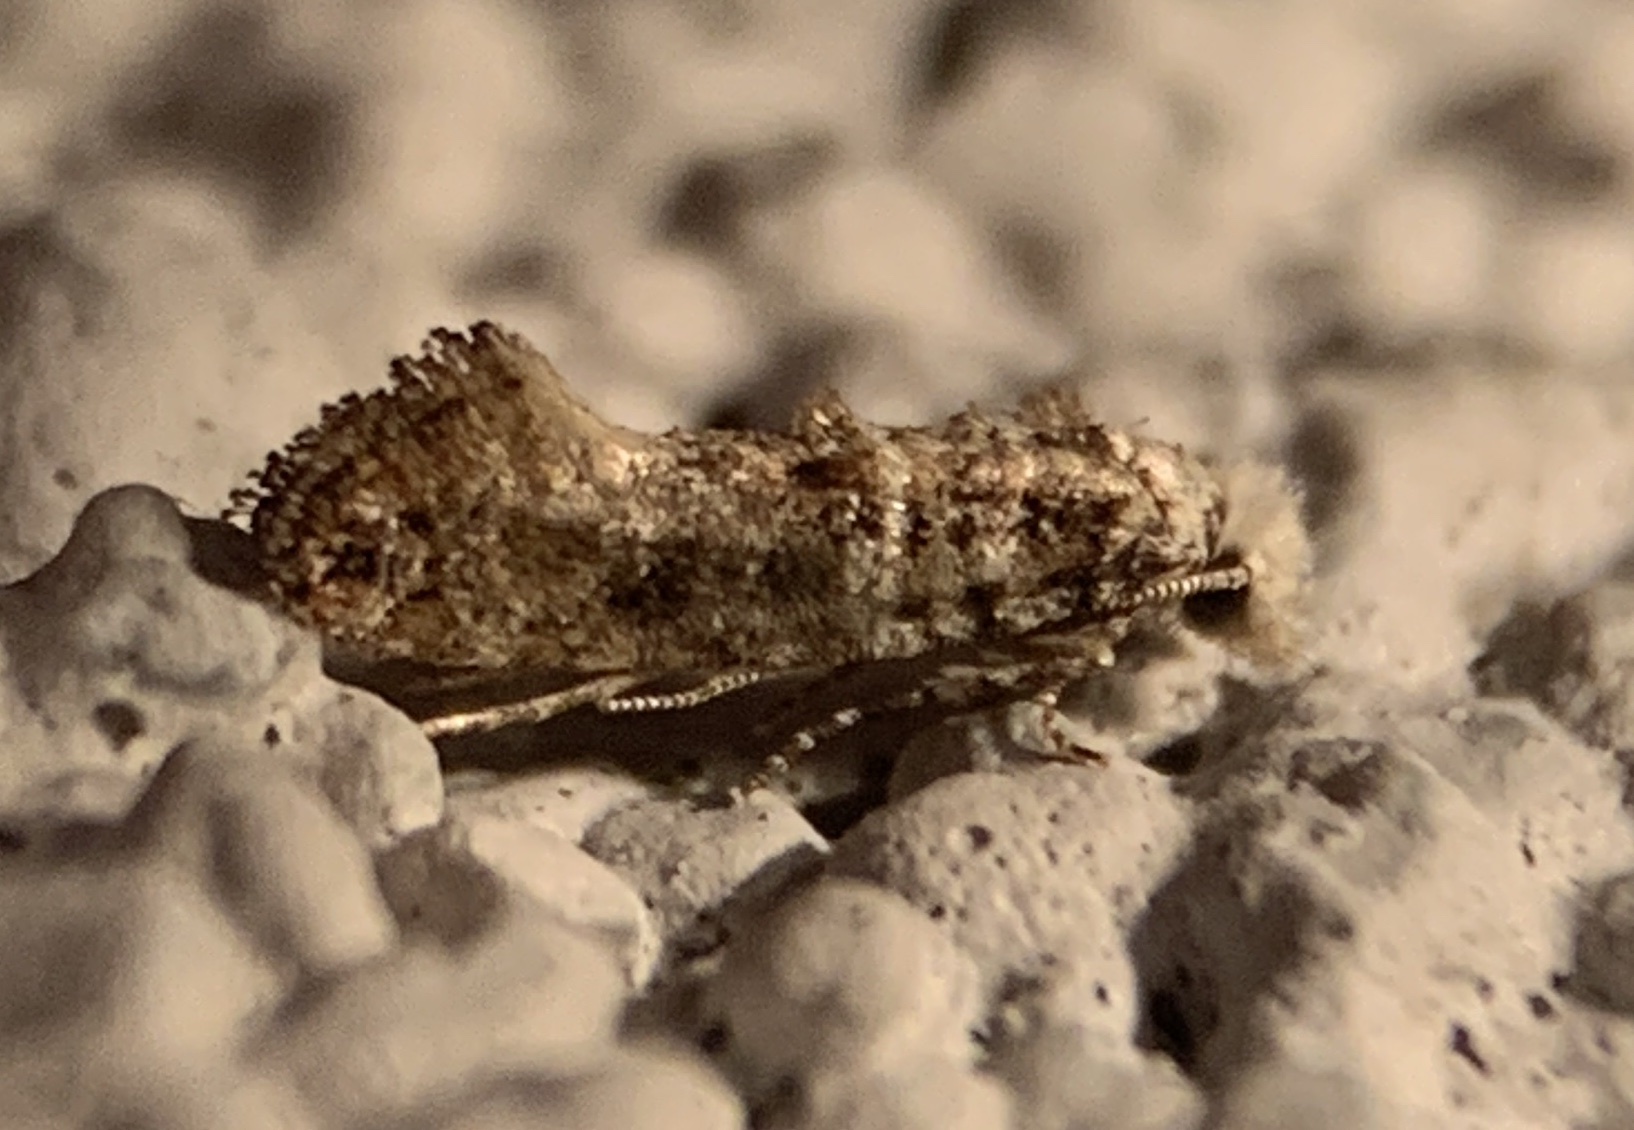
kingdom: Animalia
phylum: Arthropoda
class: Insecta
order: Lepidoptera
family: Tineidae
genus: Xylesthia
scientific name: Xylesthia pruniramiella
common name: Clemens' bark moth
